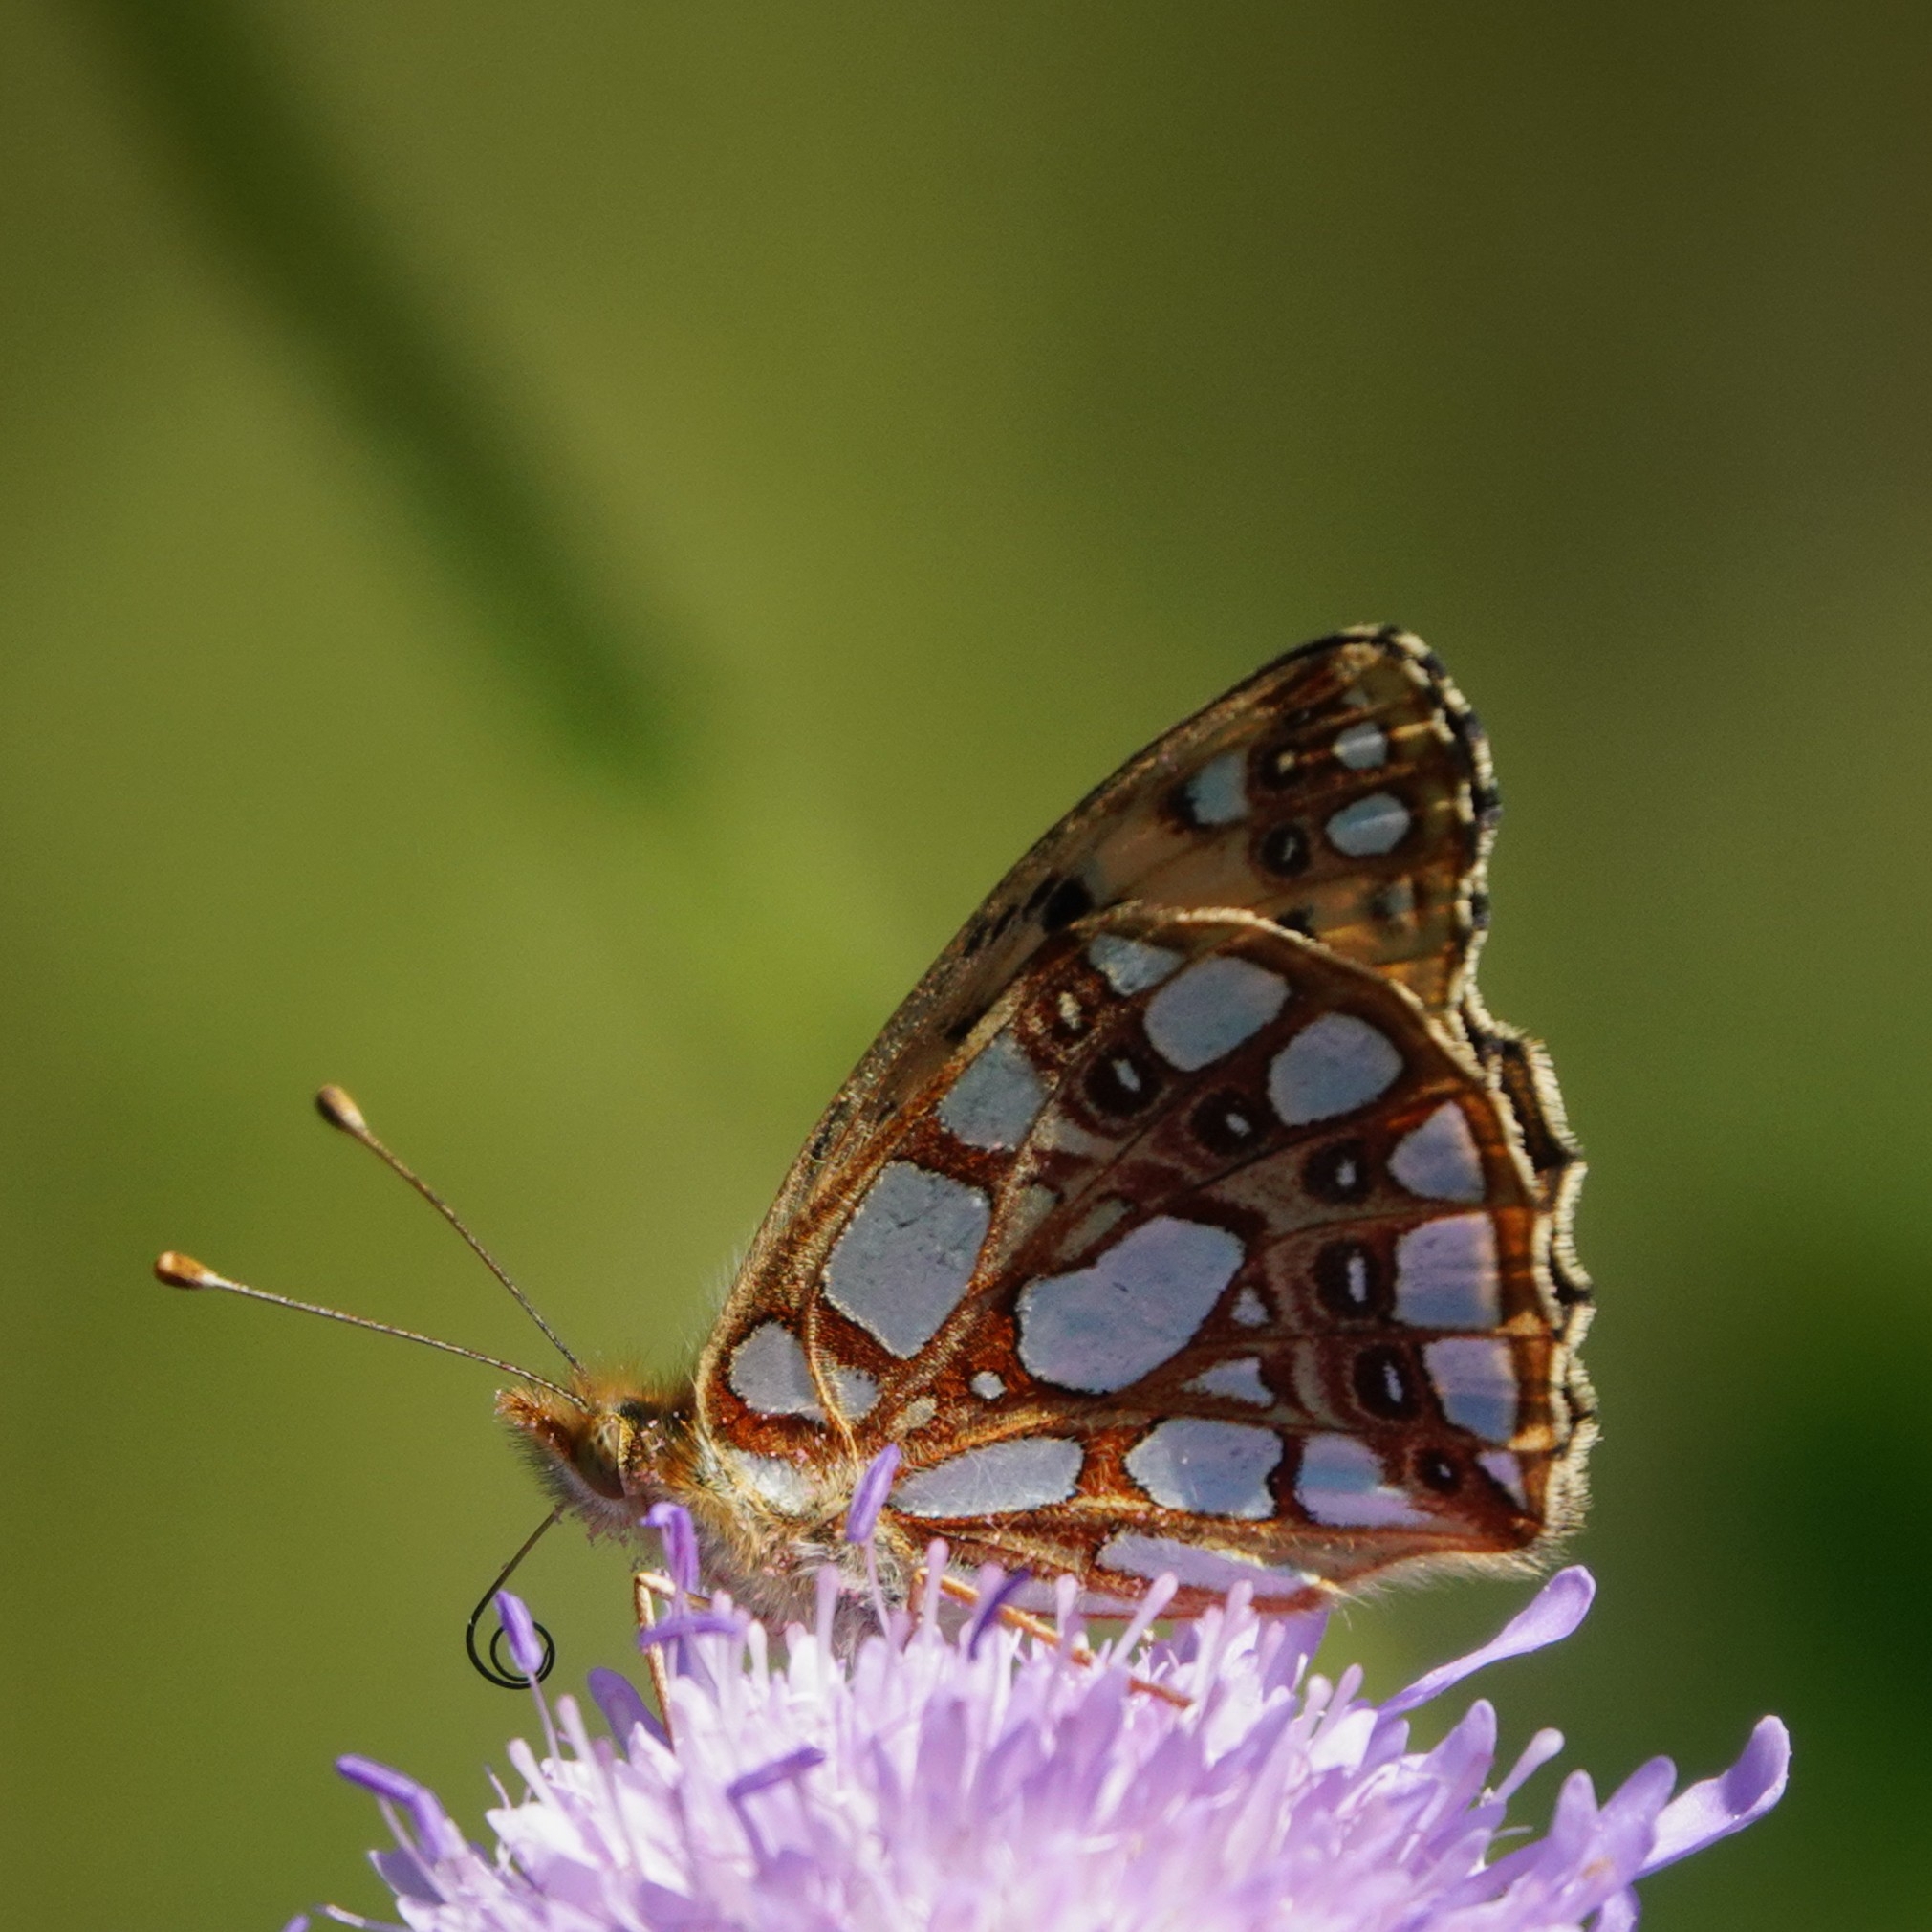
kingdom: Animalia
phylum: Arthropoda
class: Insecta
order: Lepidoptera
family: Nymphalidae
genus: Issoria
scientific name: Issoria lathonia
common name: Queen of spain fritillary
